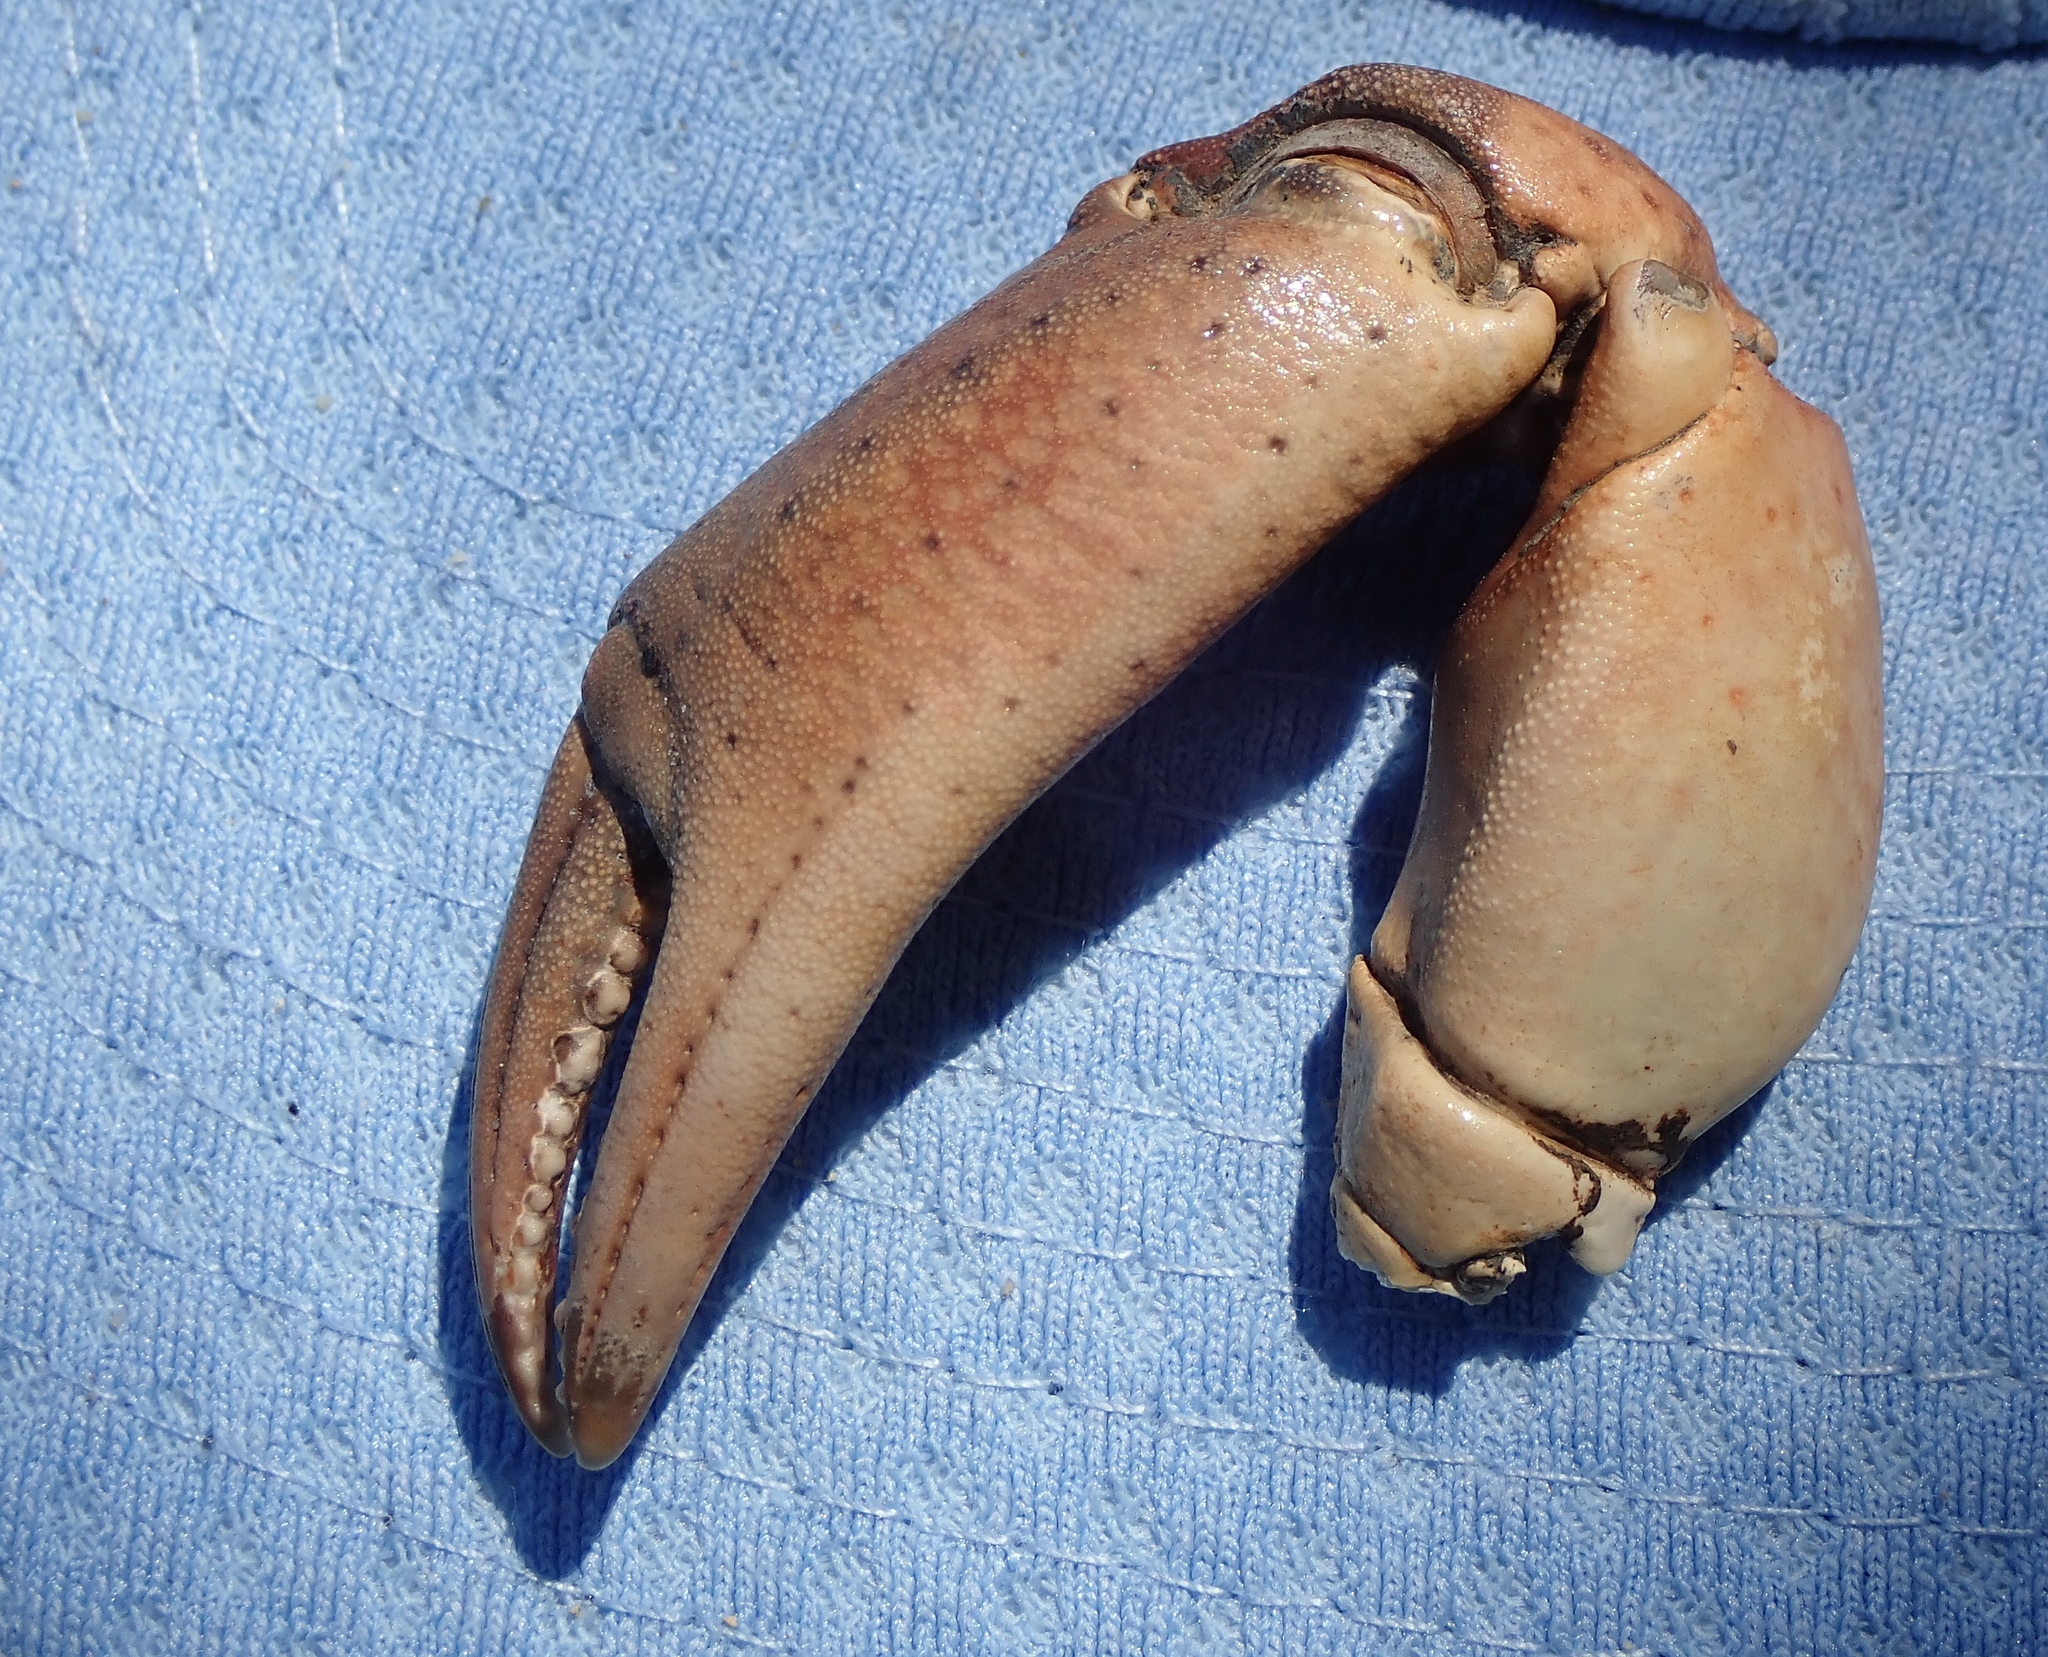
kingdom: Animalia
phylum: Arthropoda
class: Malacostraca
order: Decapoda
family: Carcinidae
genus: Carcinus
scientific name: Carcinus maenas
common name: European green crab
